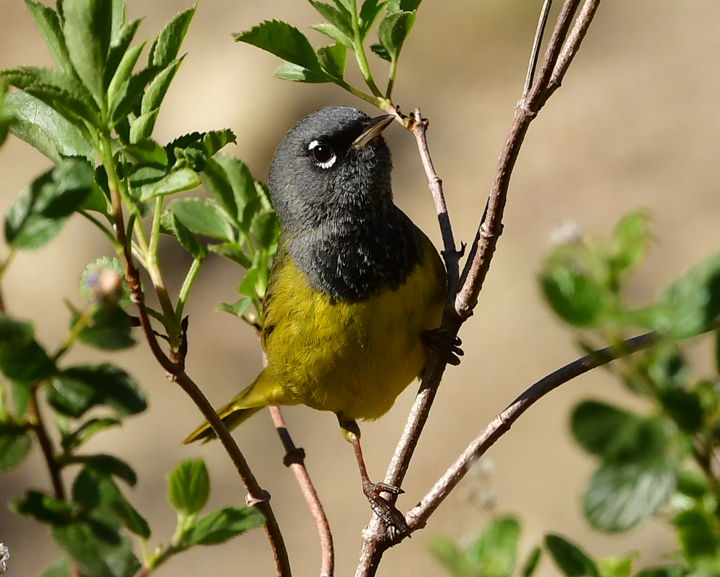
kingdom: Animalia
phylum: Chordata
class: Aves
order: Passeriformes
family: Parulidae
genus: Geothlypis
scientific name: Geothlypis tolmiei
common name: Macgillivray's warbler
